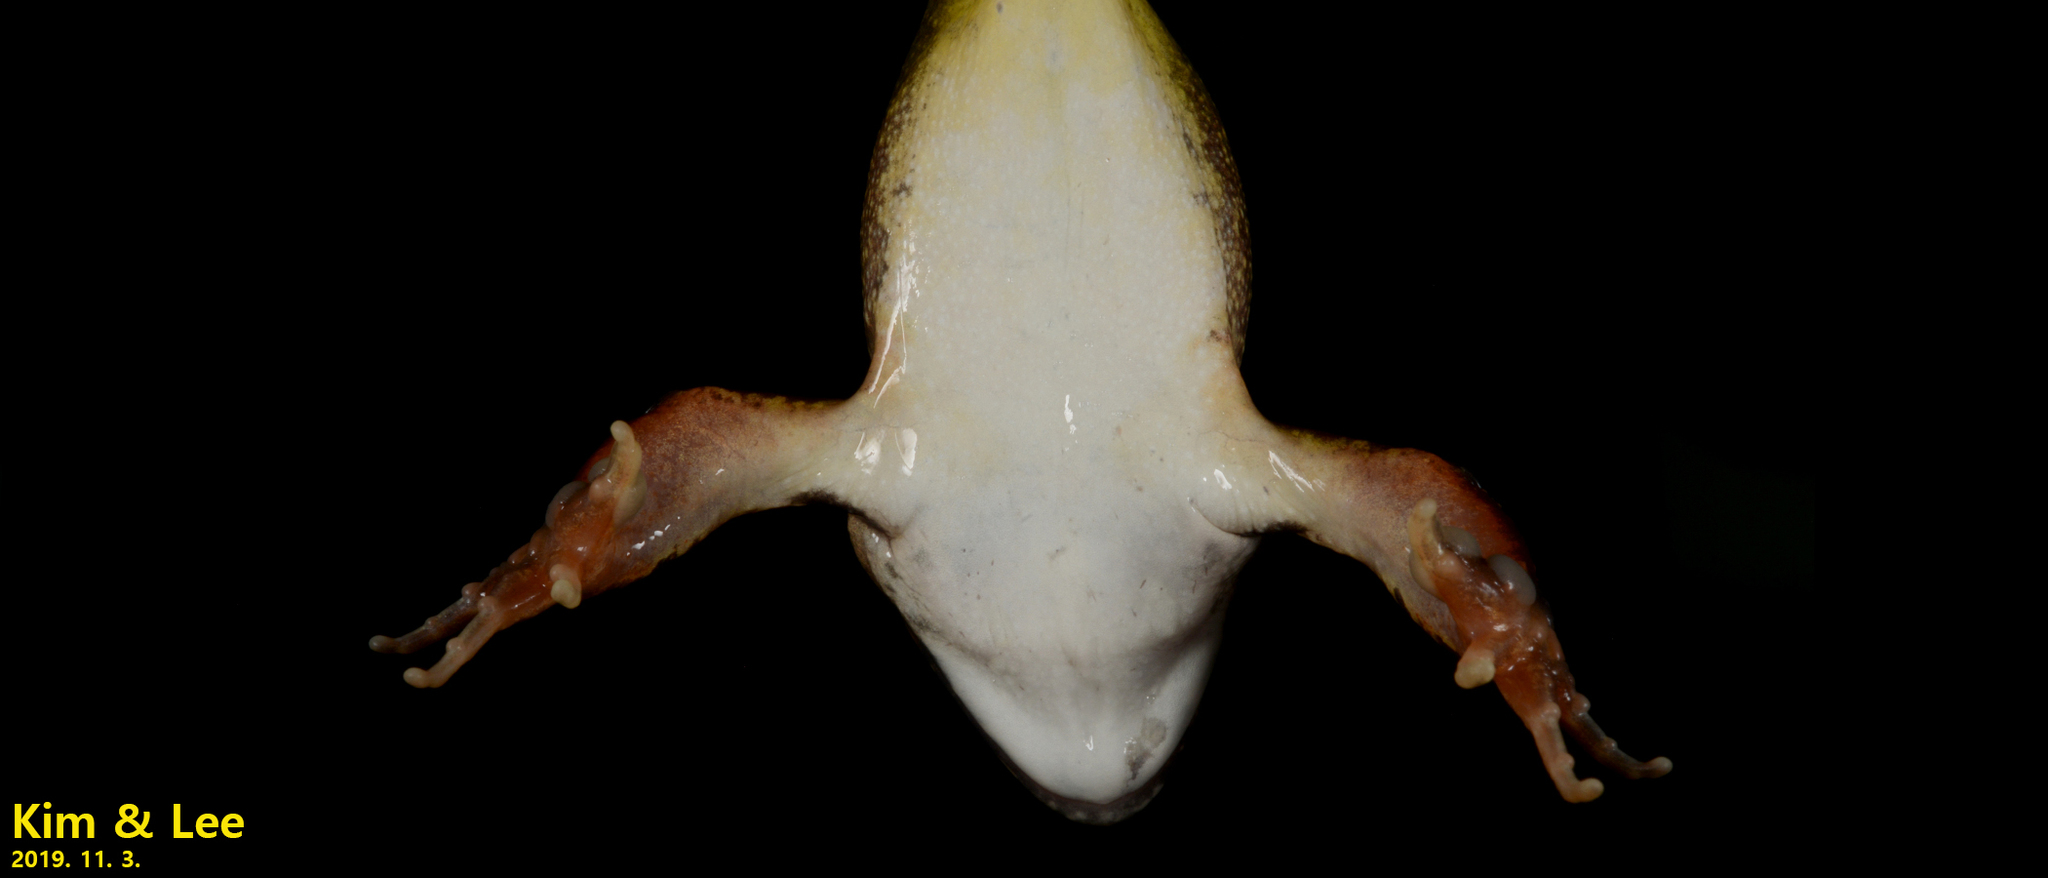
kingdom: Animalia
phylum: Chordata
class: Amphibia
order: Anura
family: Ranidae
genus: Rana
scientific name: Rana uenoi
